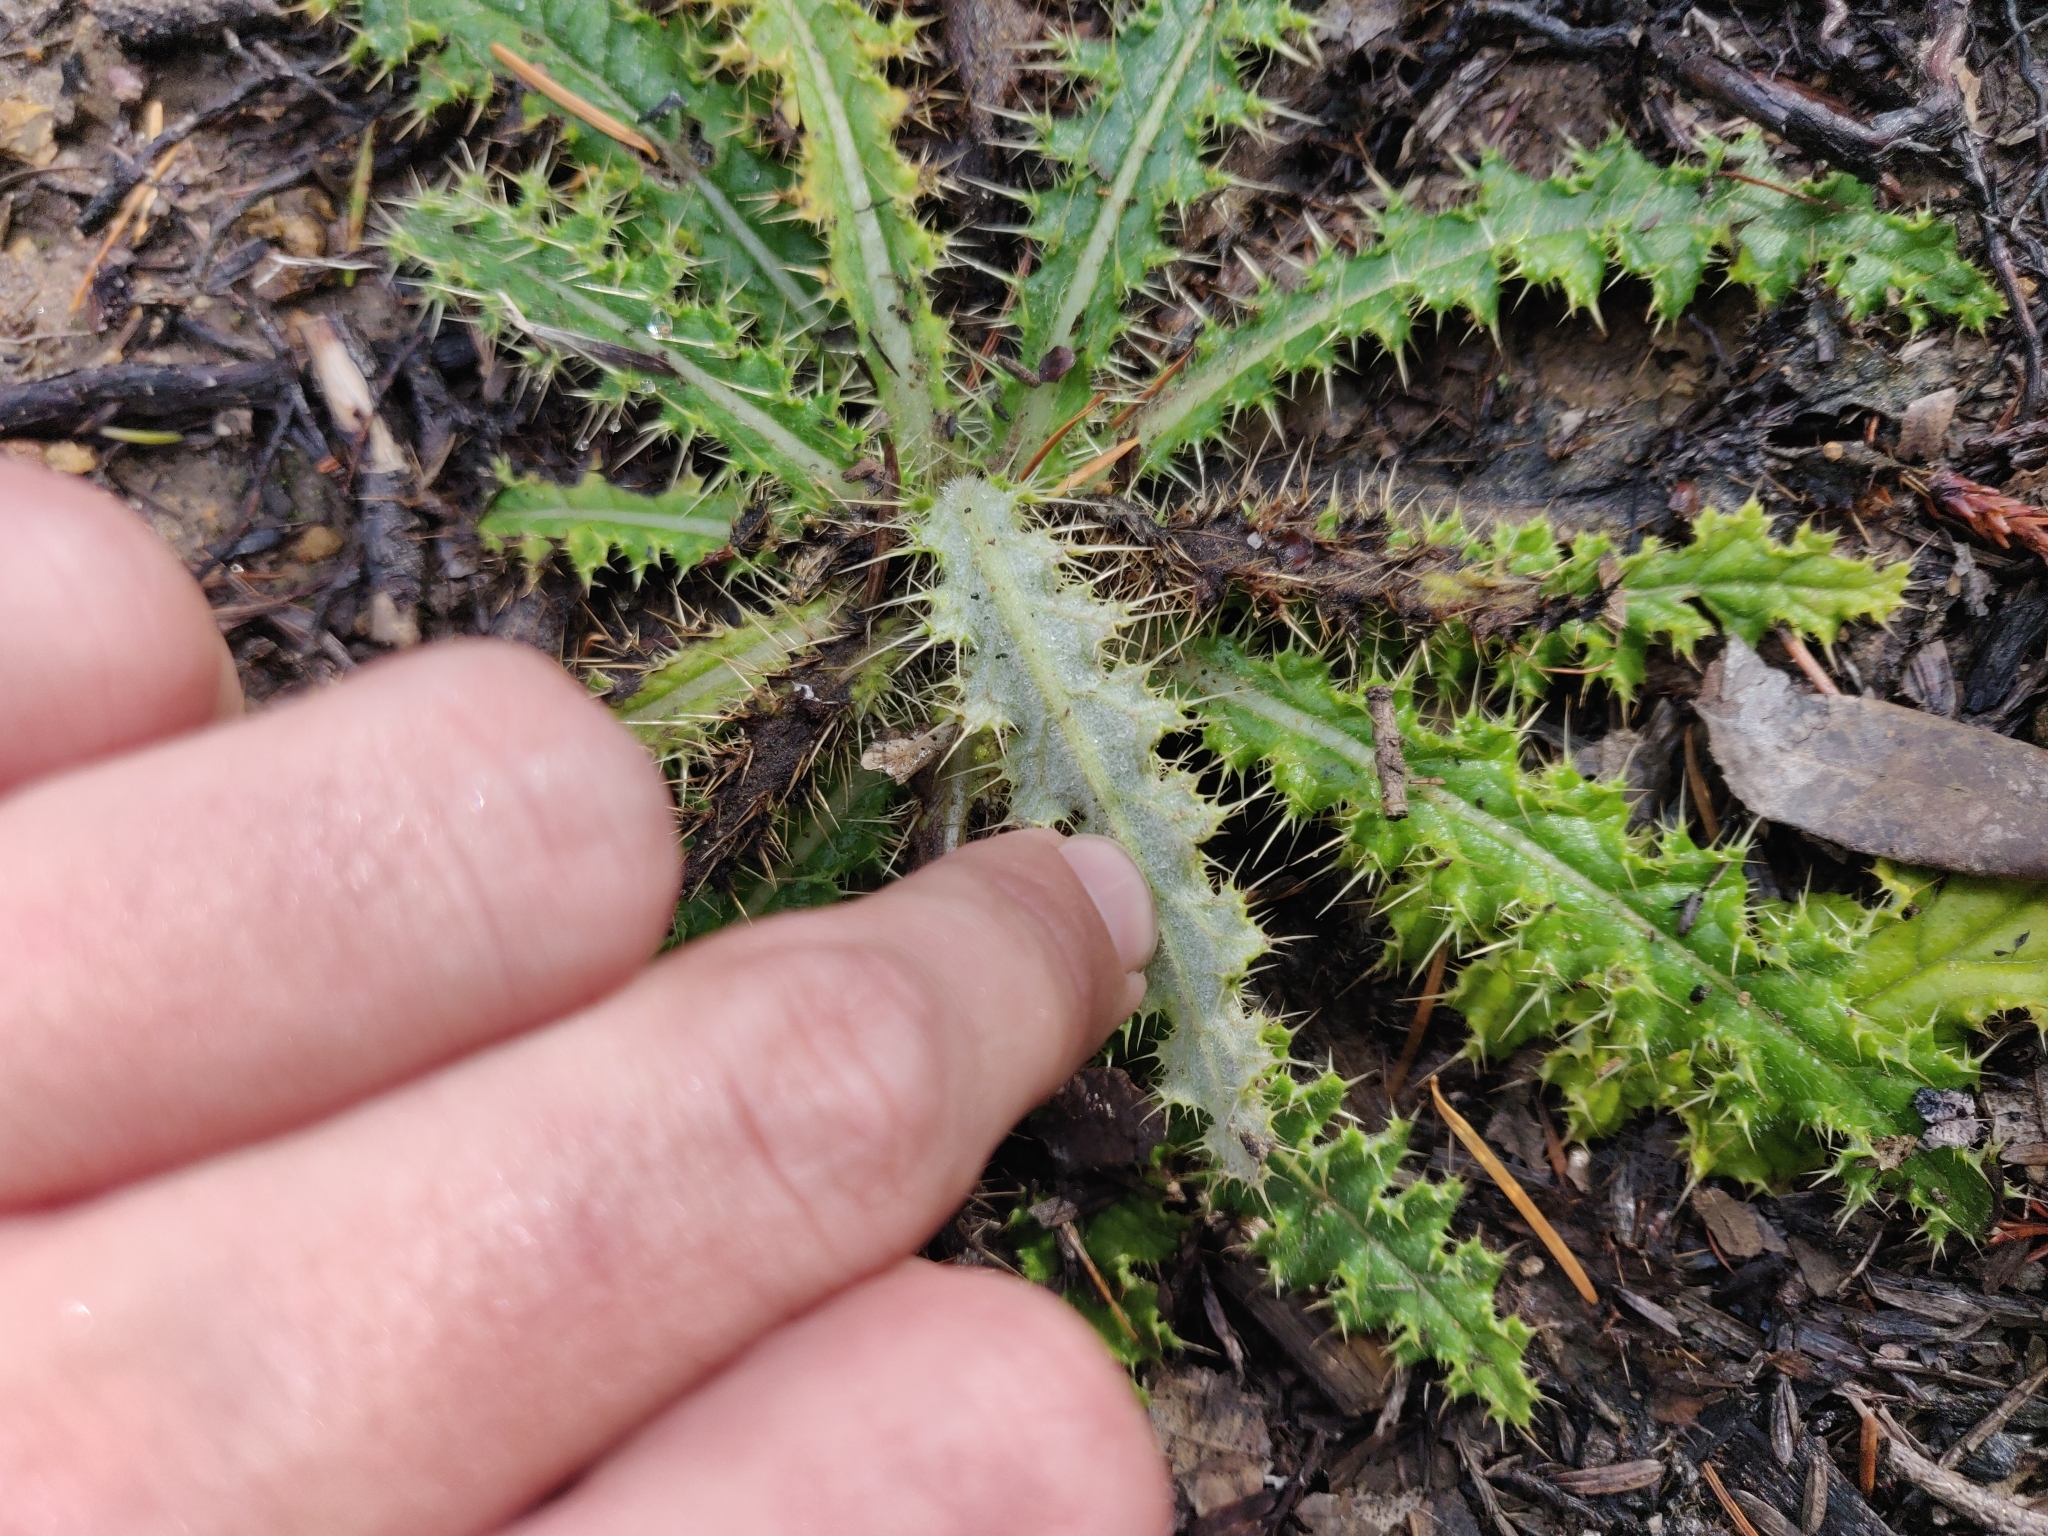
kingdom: Plantae
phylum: Tracheophyta
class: Magnoliopsida
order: Asterales
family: Asteraceae
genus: Cirsium
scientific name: Cirsium brevistylum
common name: Indian thistle
